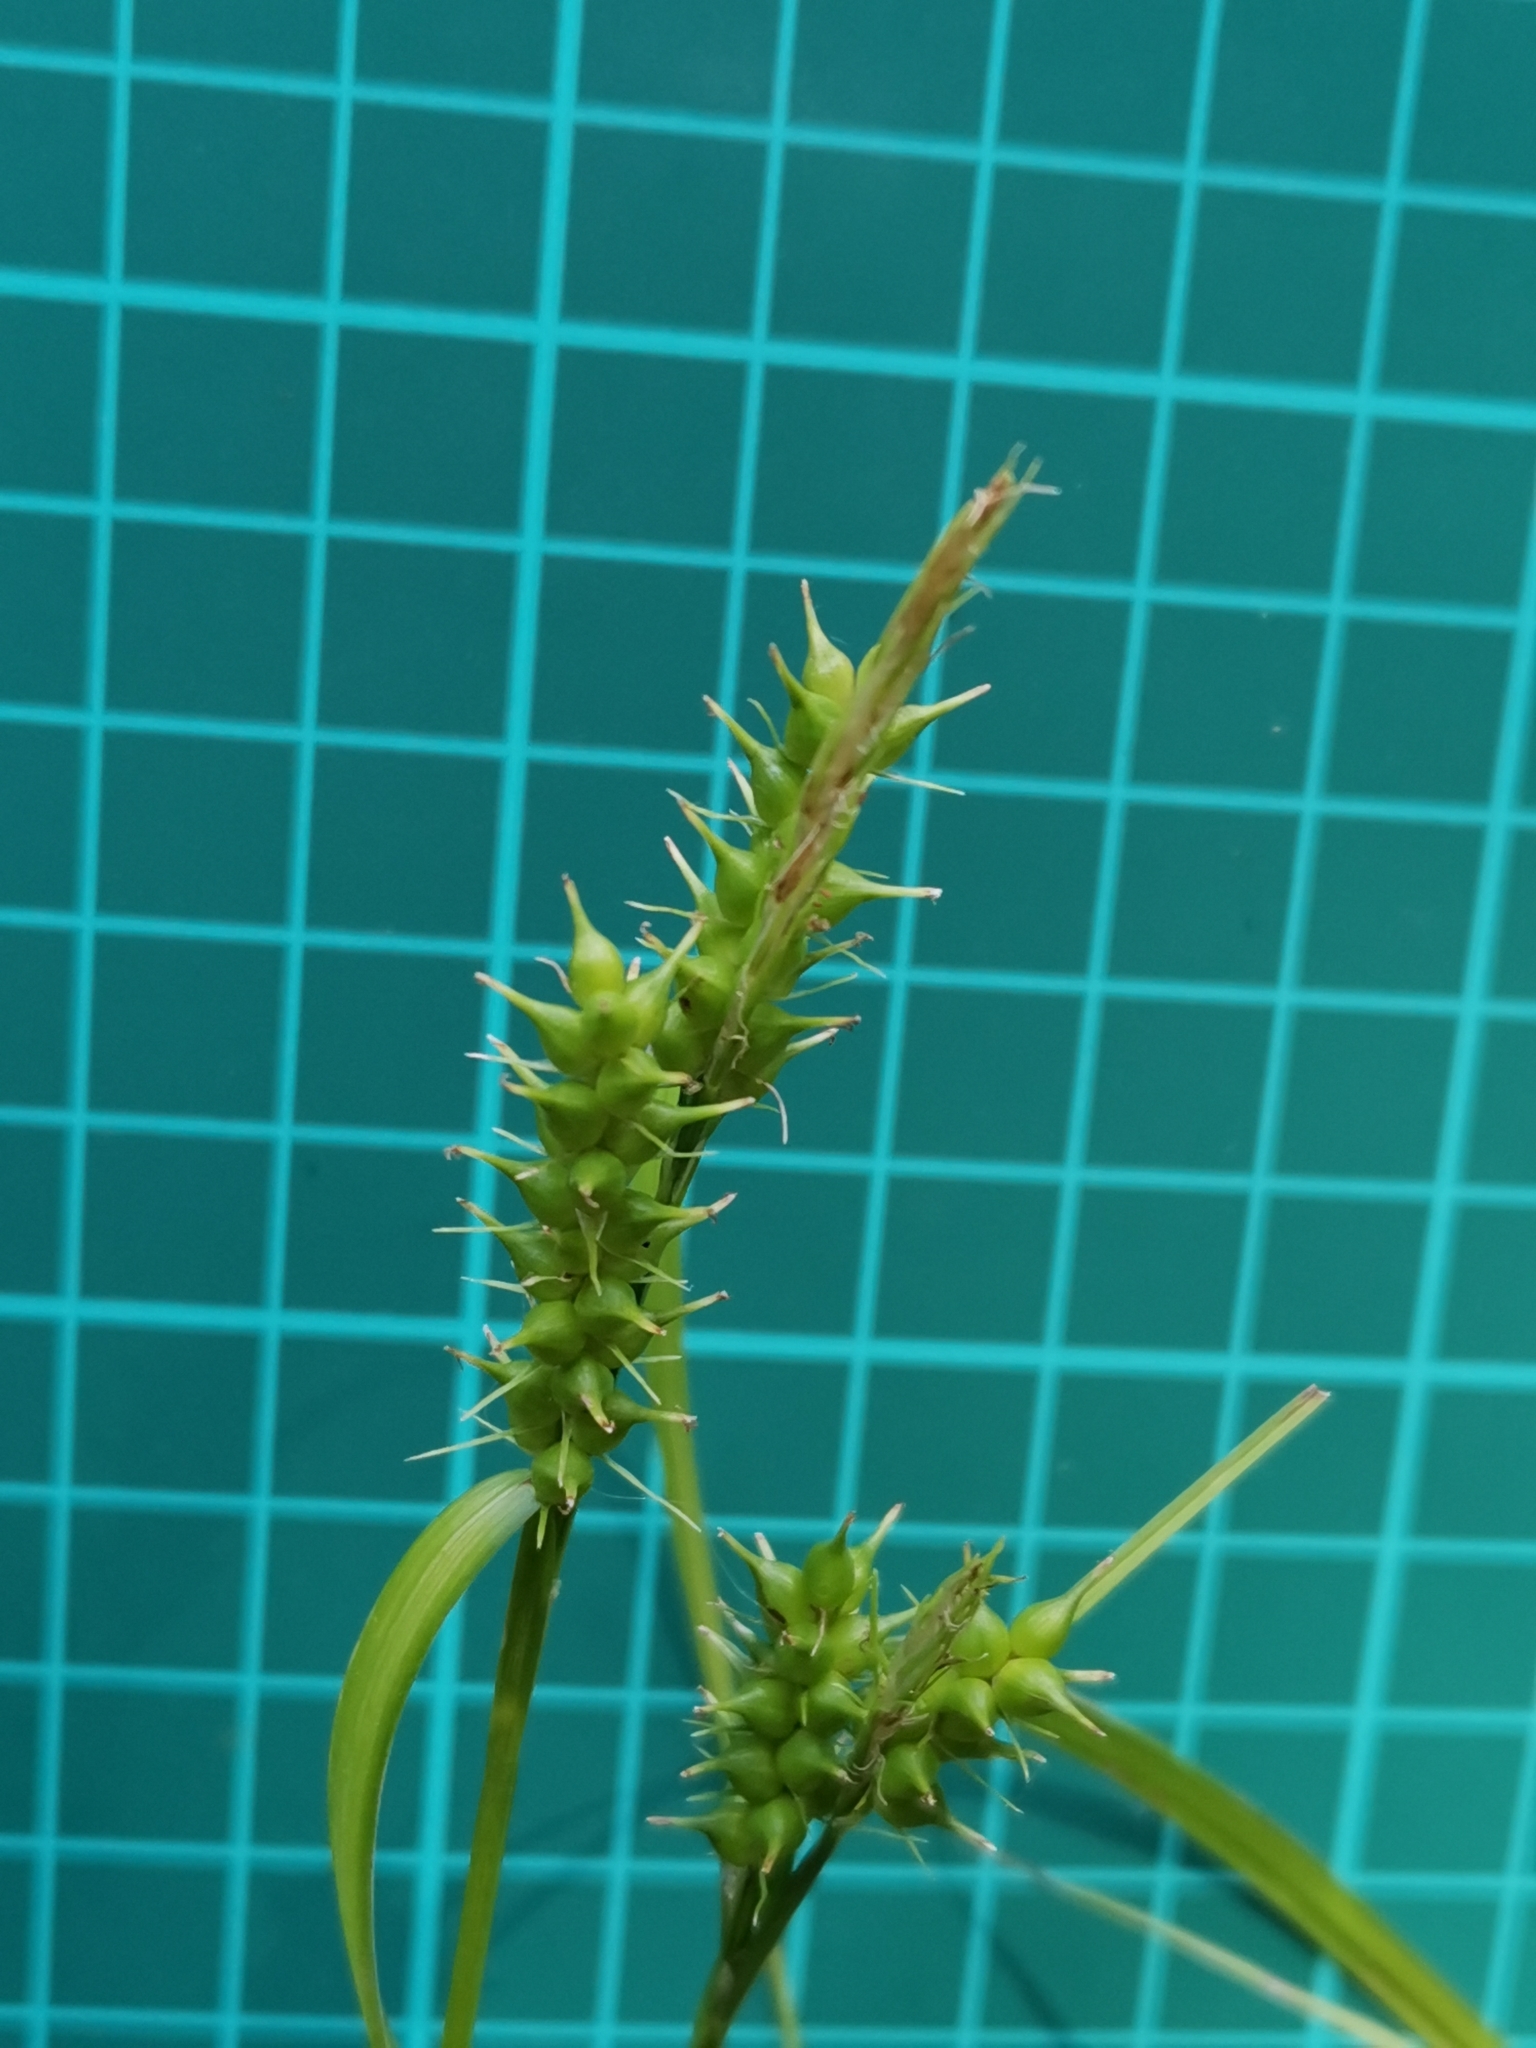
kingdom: Plantae
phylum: Tracheophyta
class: Liliopsida
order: Poales
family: Cyperaceae
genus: Carex
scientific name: Carex brownii
